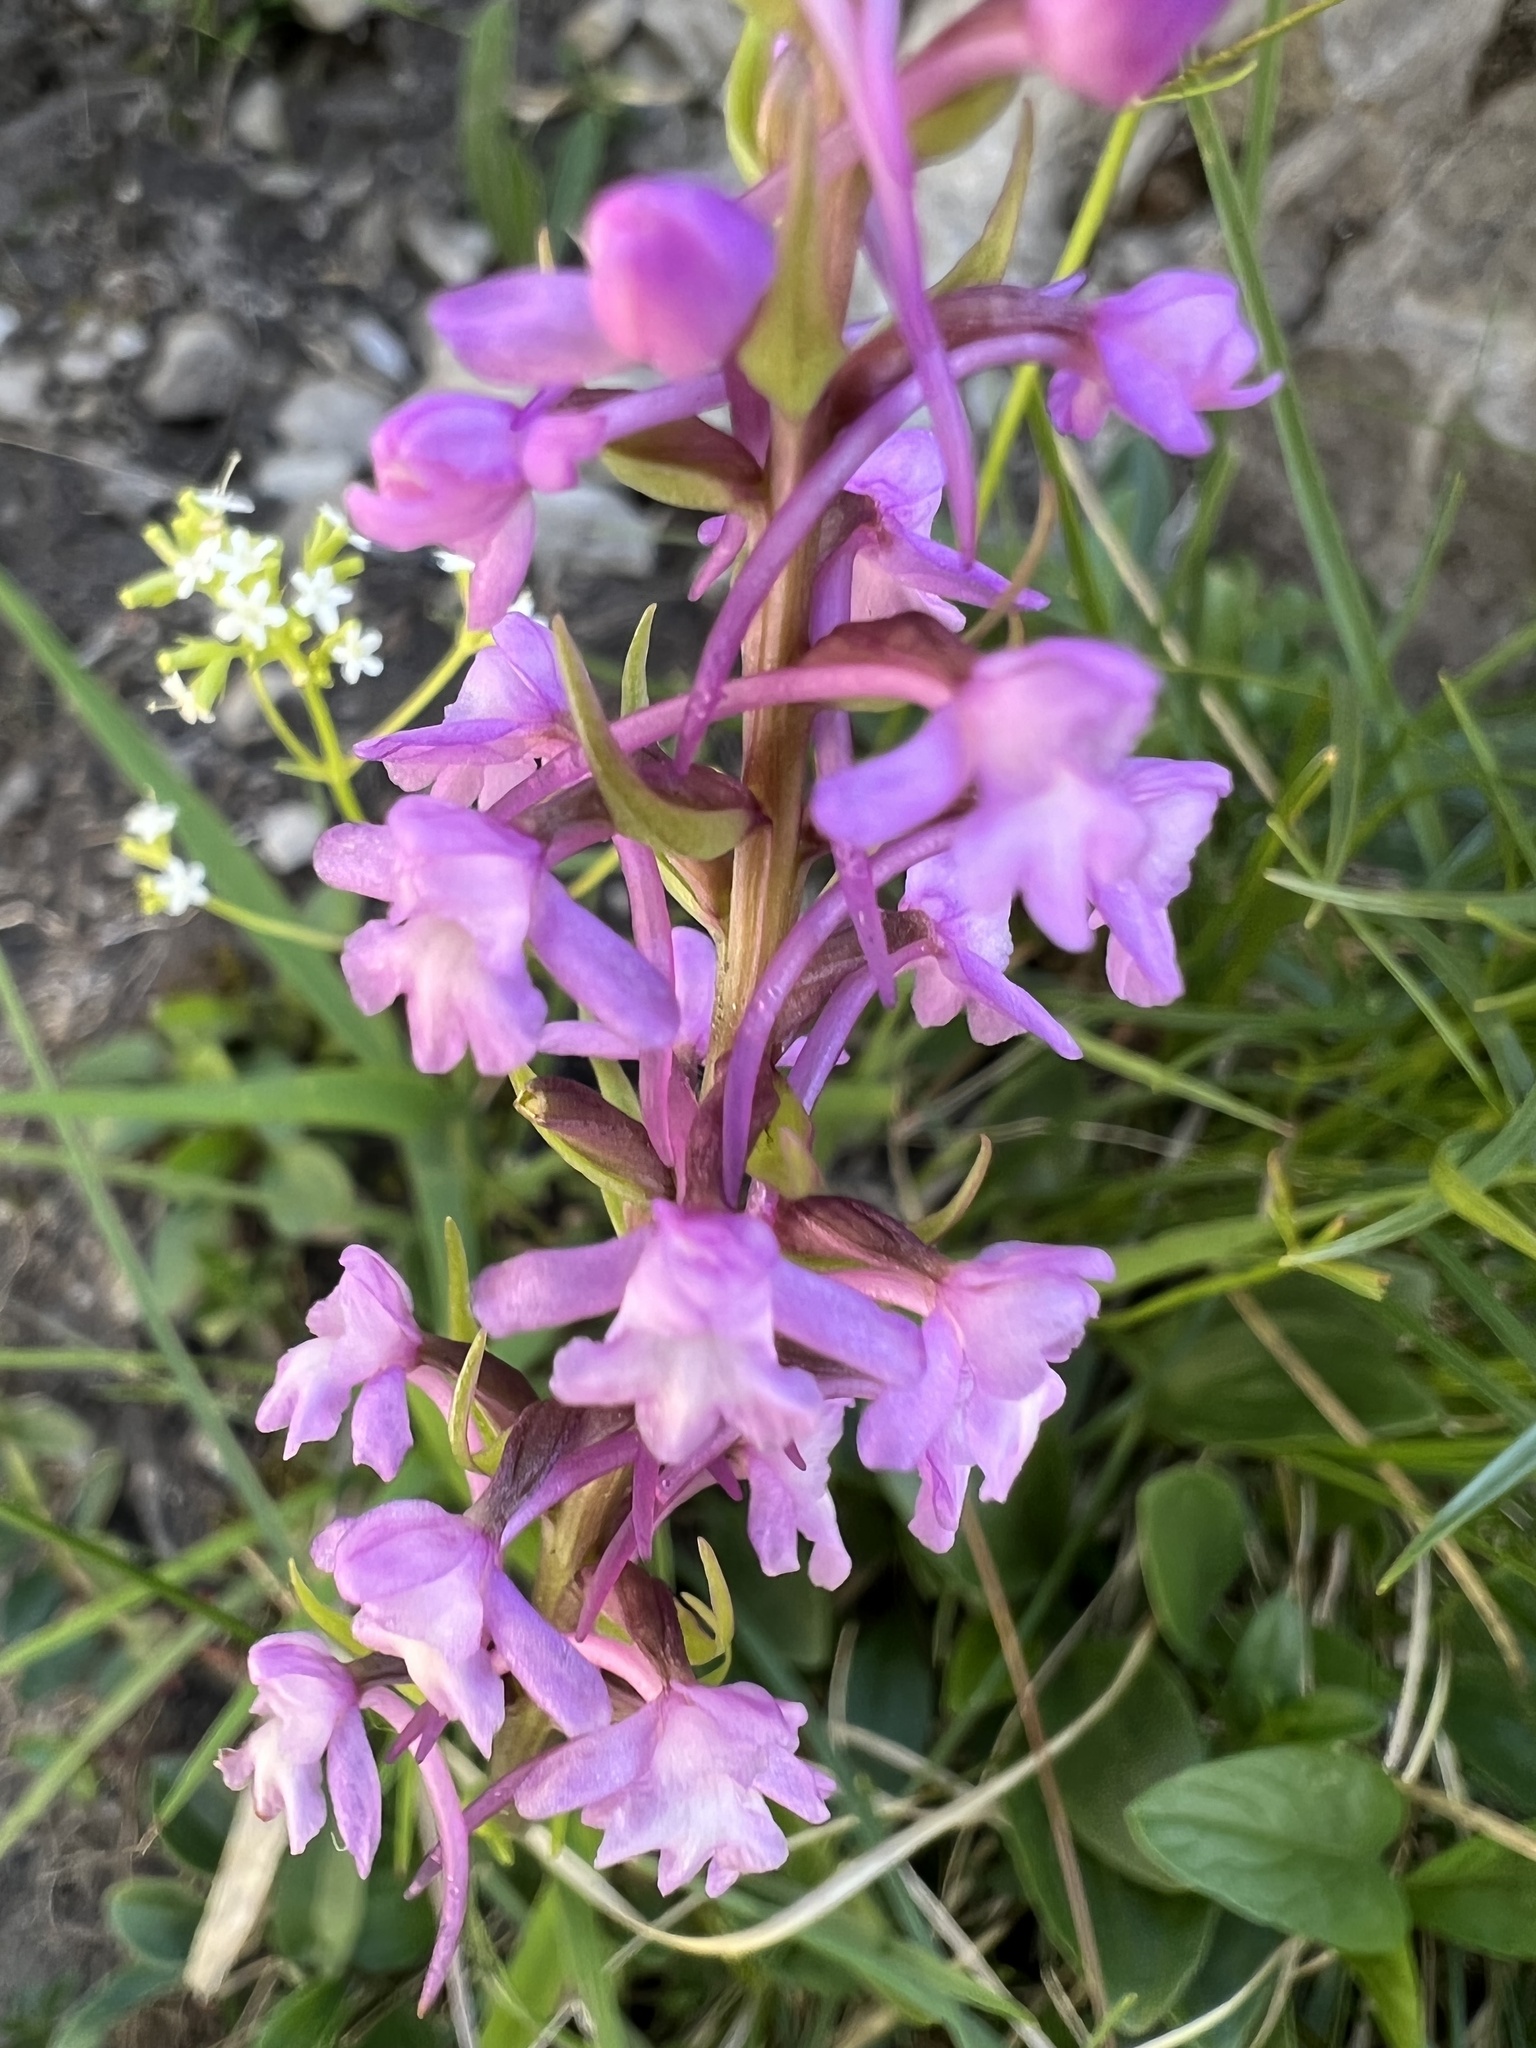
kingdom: Plantae
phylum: Tracheophyta
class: Liliopsida
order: Asparagales
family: Orchidaceae
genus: Gymnadenia
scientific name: Gymnadenia conopsea
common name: Fragrant orchid
